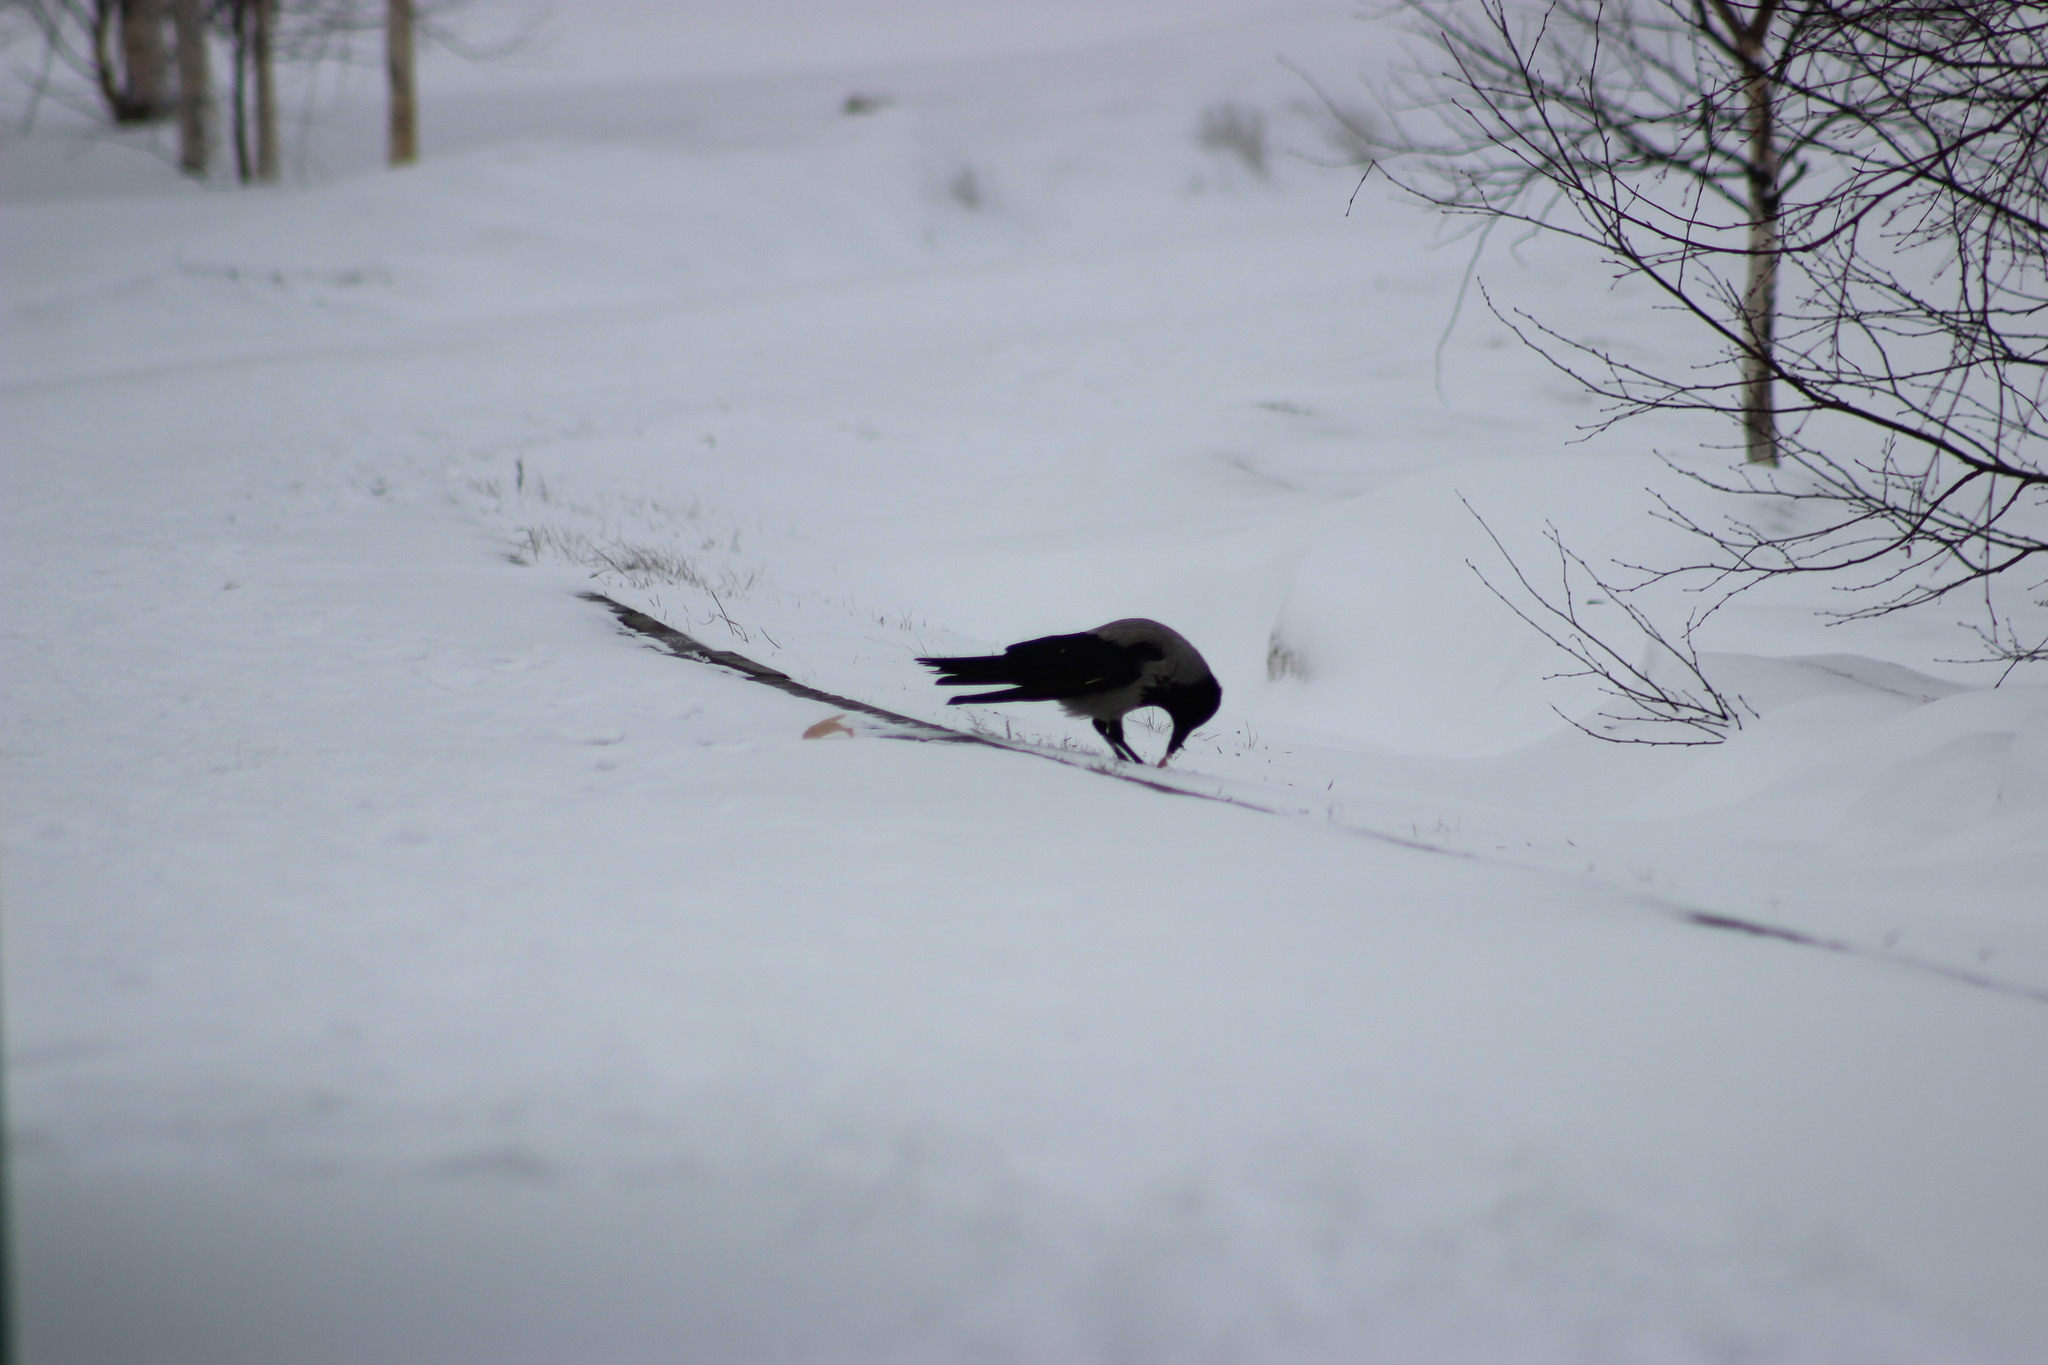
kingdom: Animalia
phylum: Chordata
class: Aves
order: Passeriformes
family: Corvidae
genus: Corvus
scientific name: Corvus cornix
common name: Hooded crow
